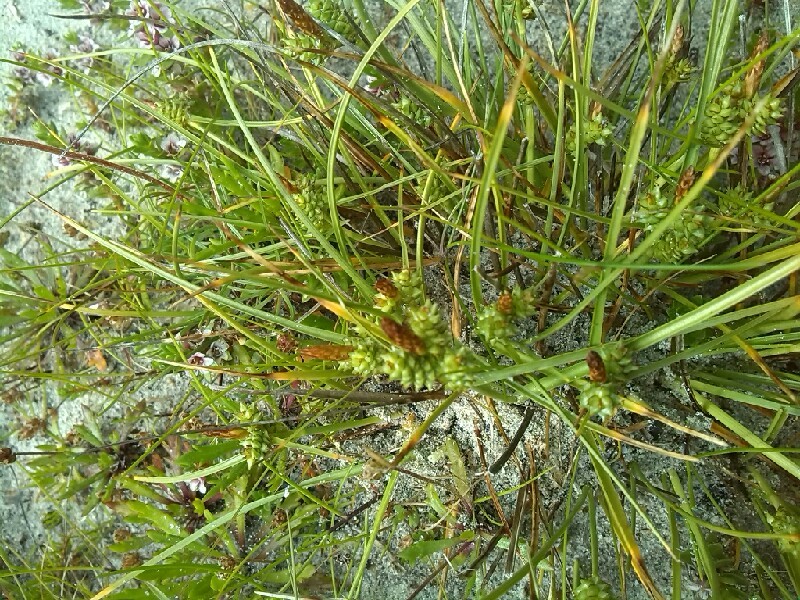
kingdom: Plantae
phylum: Tracheophyta
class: Liliopsida
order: Poales
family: Cyperaceae
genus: Carex
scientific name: Carex extensa
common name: Long-bracted sedge
